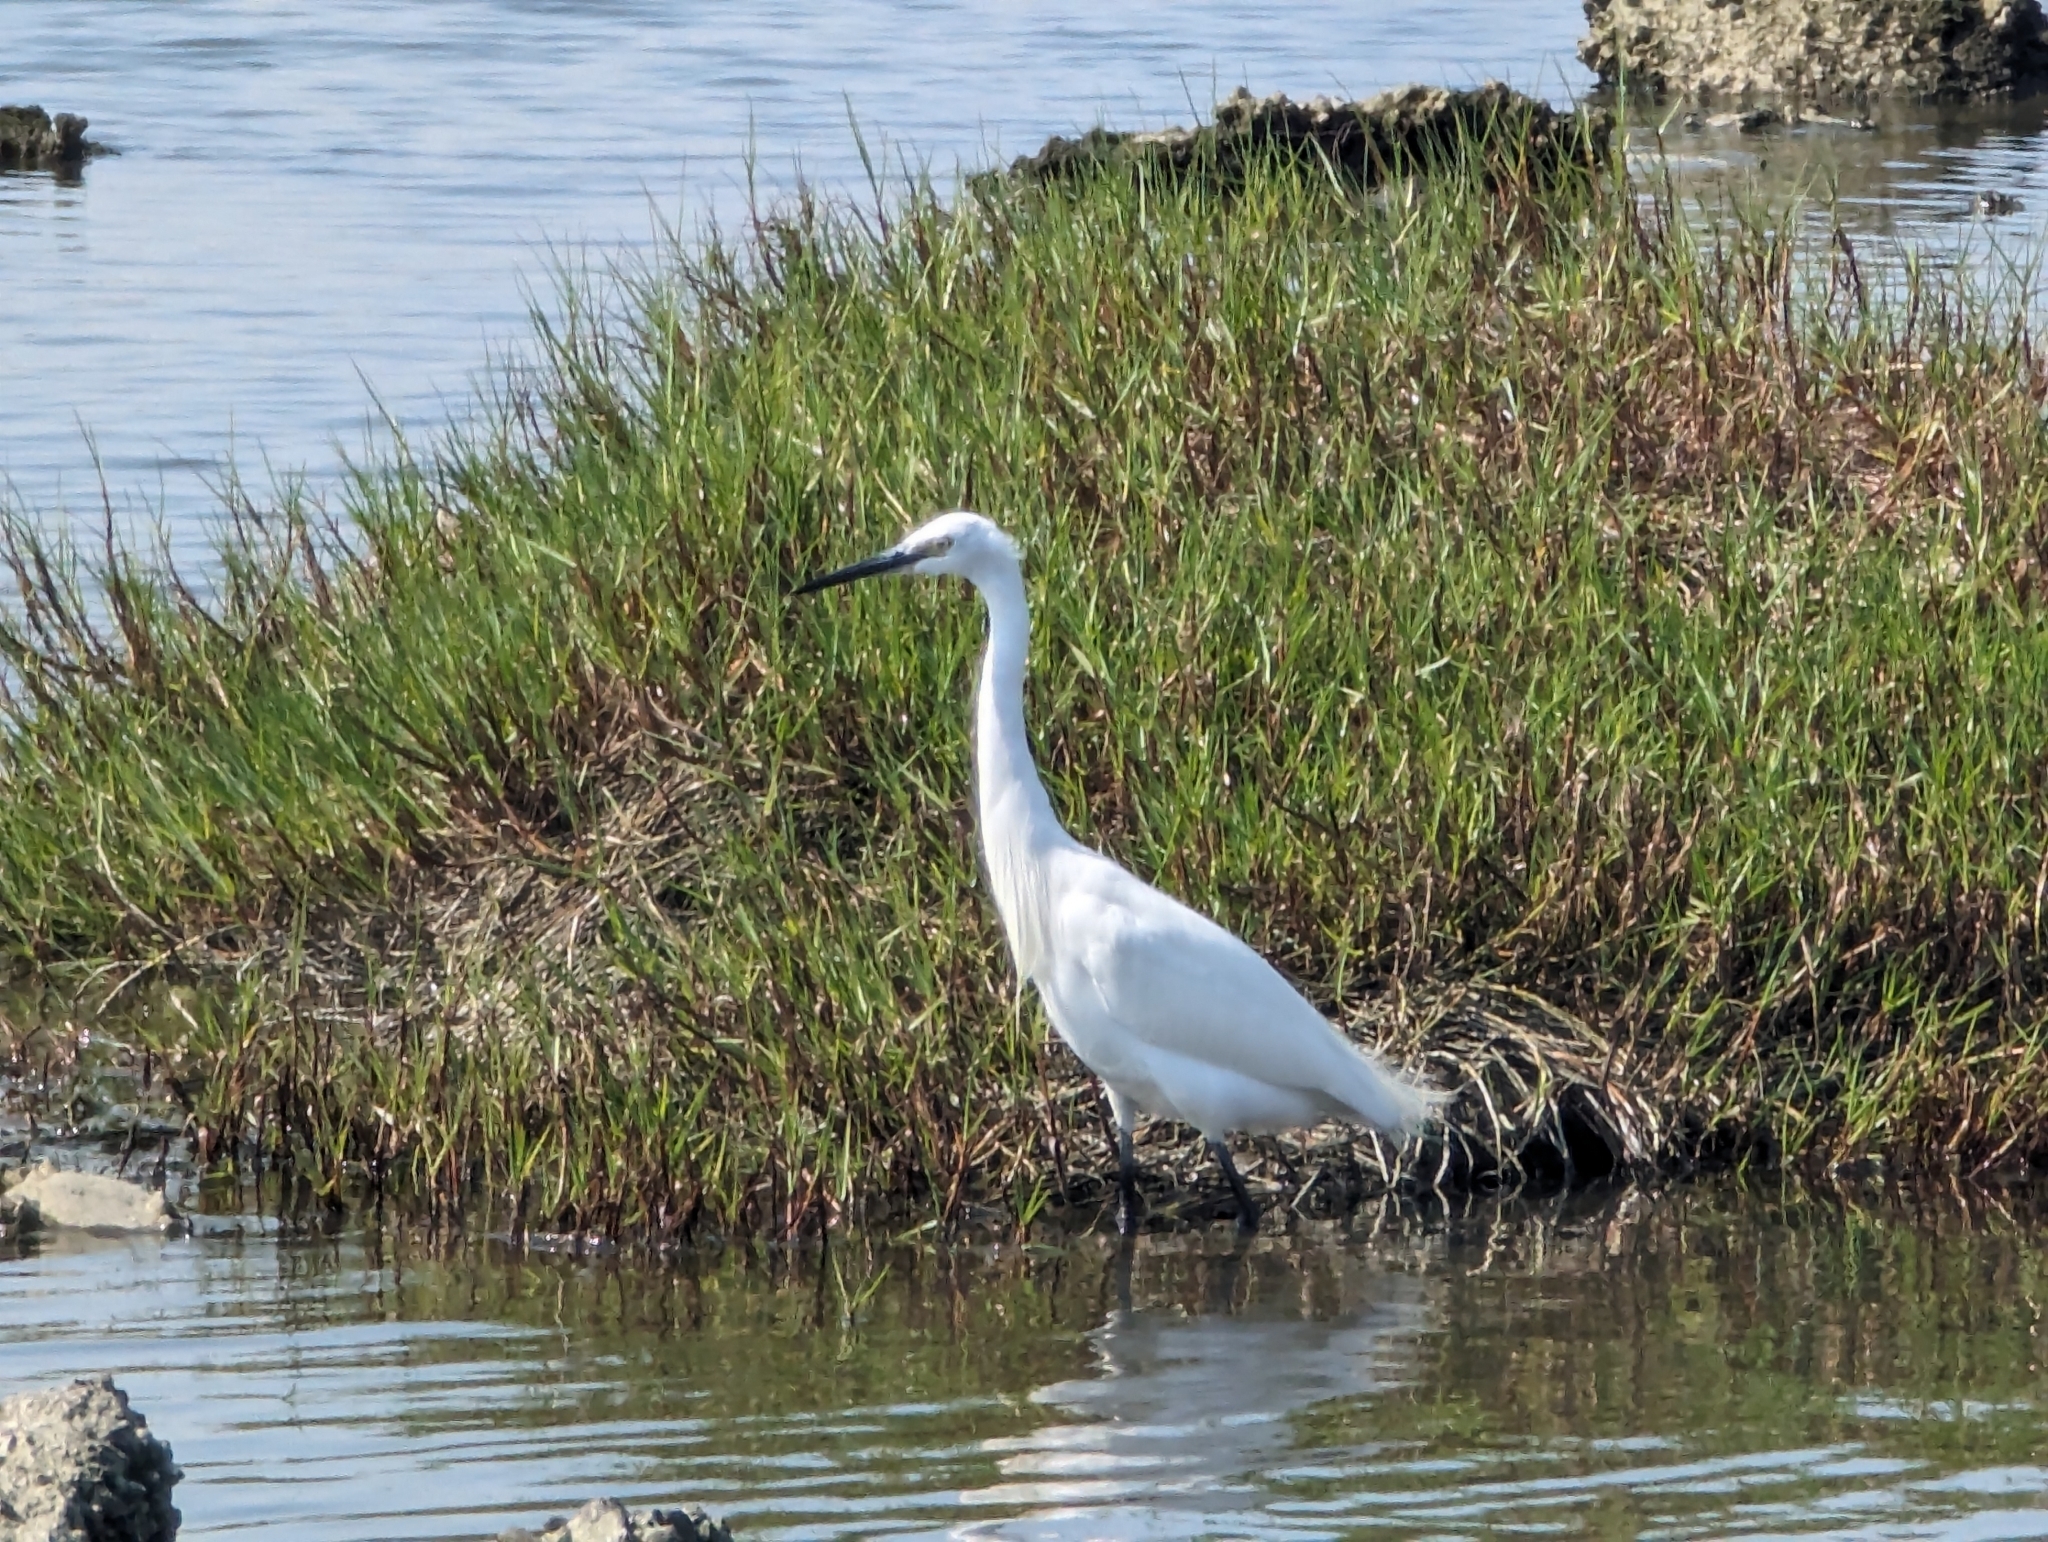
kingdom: Animalia
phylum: Chordata
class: Aves
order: Pelecaniformes
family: Ardeidae
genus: Egretta
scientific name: Egretta garzetta
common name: Little egret
